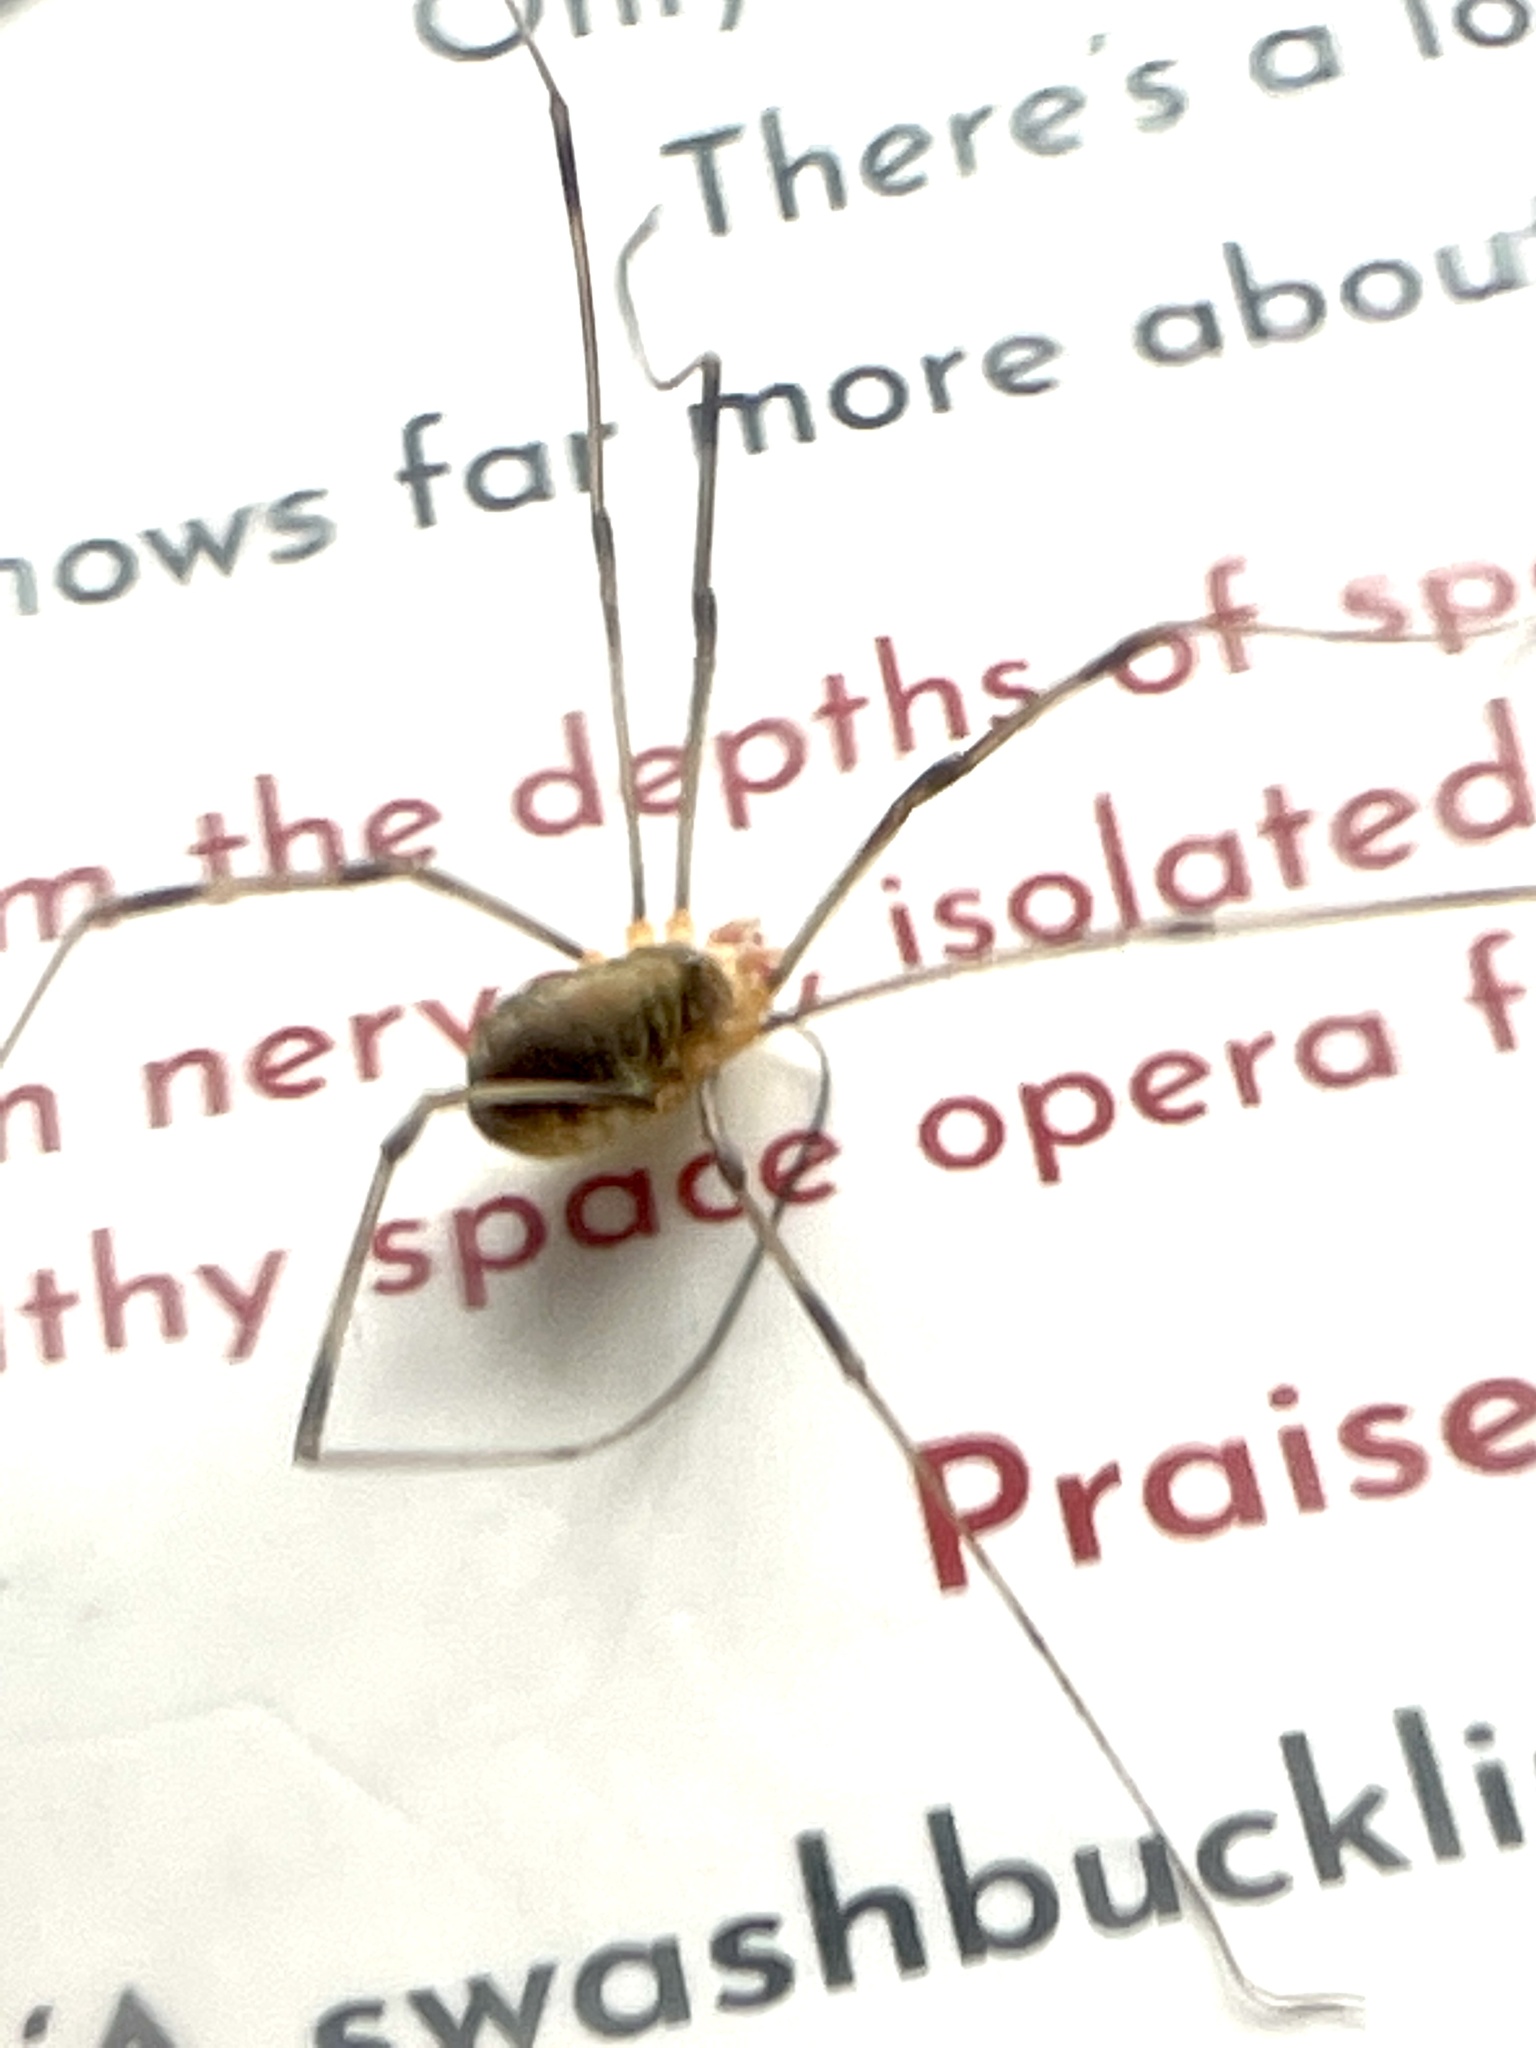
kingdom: Animalia
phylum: Arthropoda
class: Arachnida
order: Opiliones
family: Phalangiidae
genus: Opilio
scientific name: Opilio canestrinii
